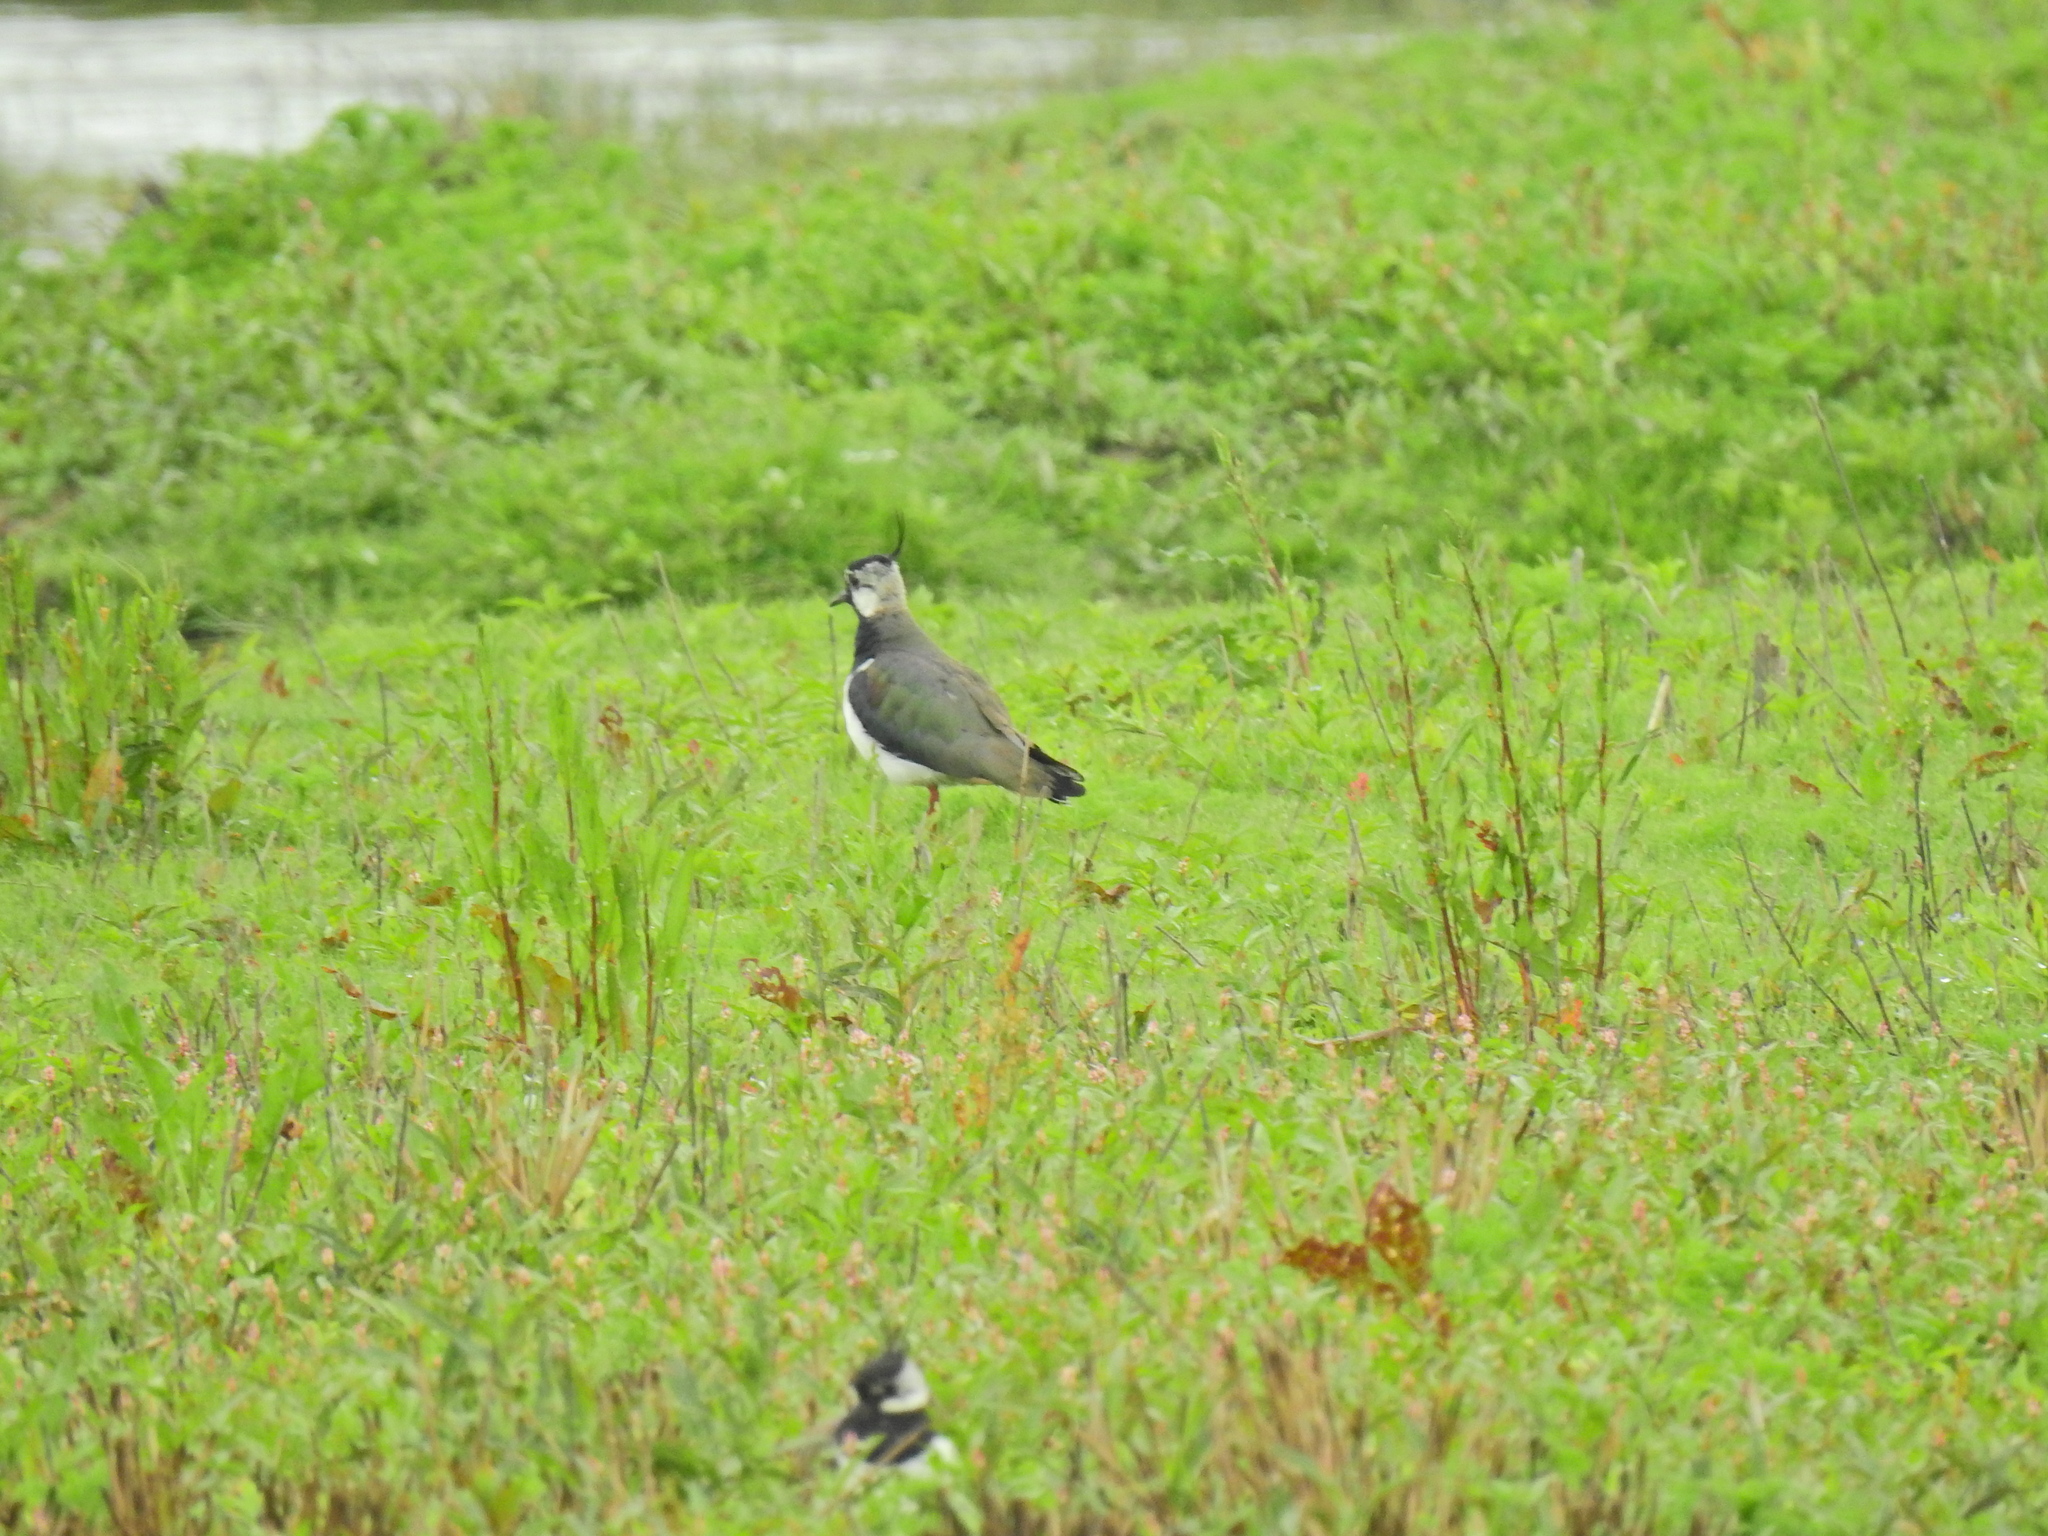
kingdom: Animalia
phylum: Chordata
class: Aves
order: Charadriiformes
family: Charadriidae
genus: Vanellus
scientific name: Vanellus vanellus
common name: Northern lapwing
